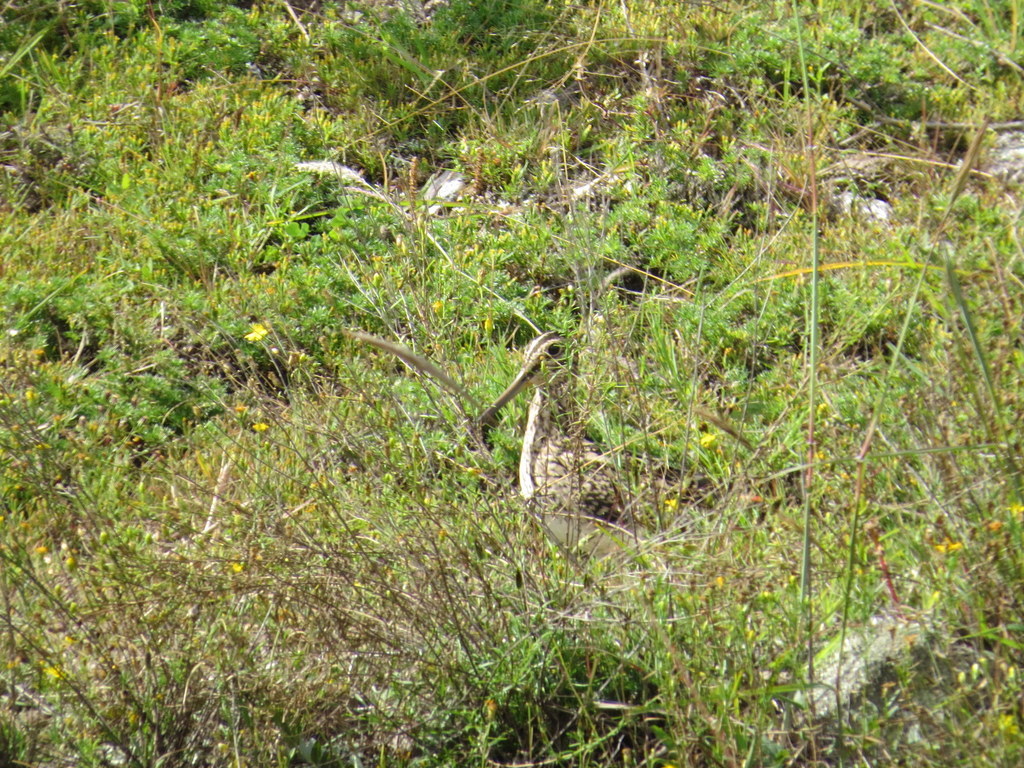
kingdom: Animalia
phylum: Chordata
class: Aves
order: Charadriiformes
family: Scolopacidae
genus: Gallinago
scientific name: Gallinago paraguaiae
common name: South american snipe
